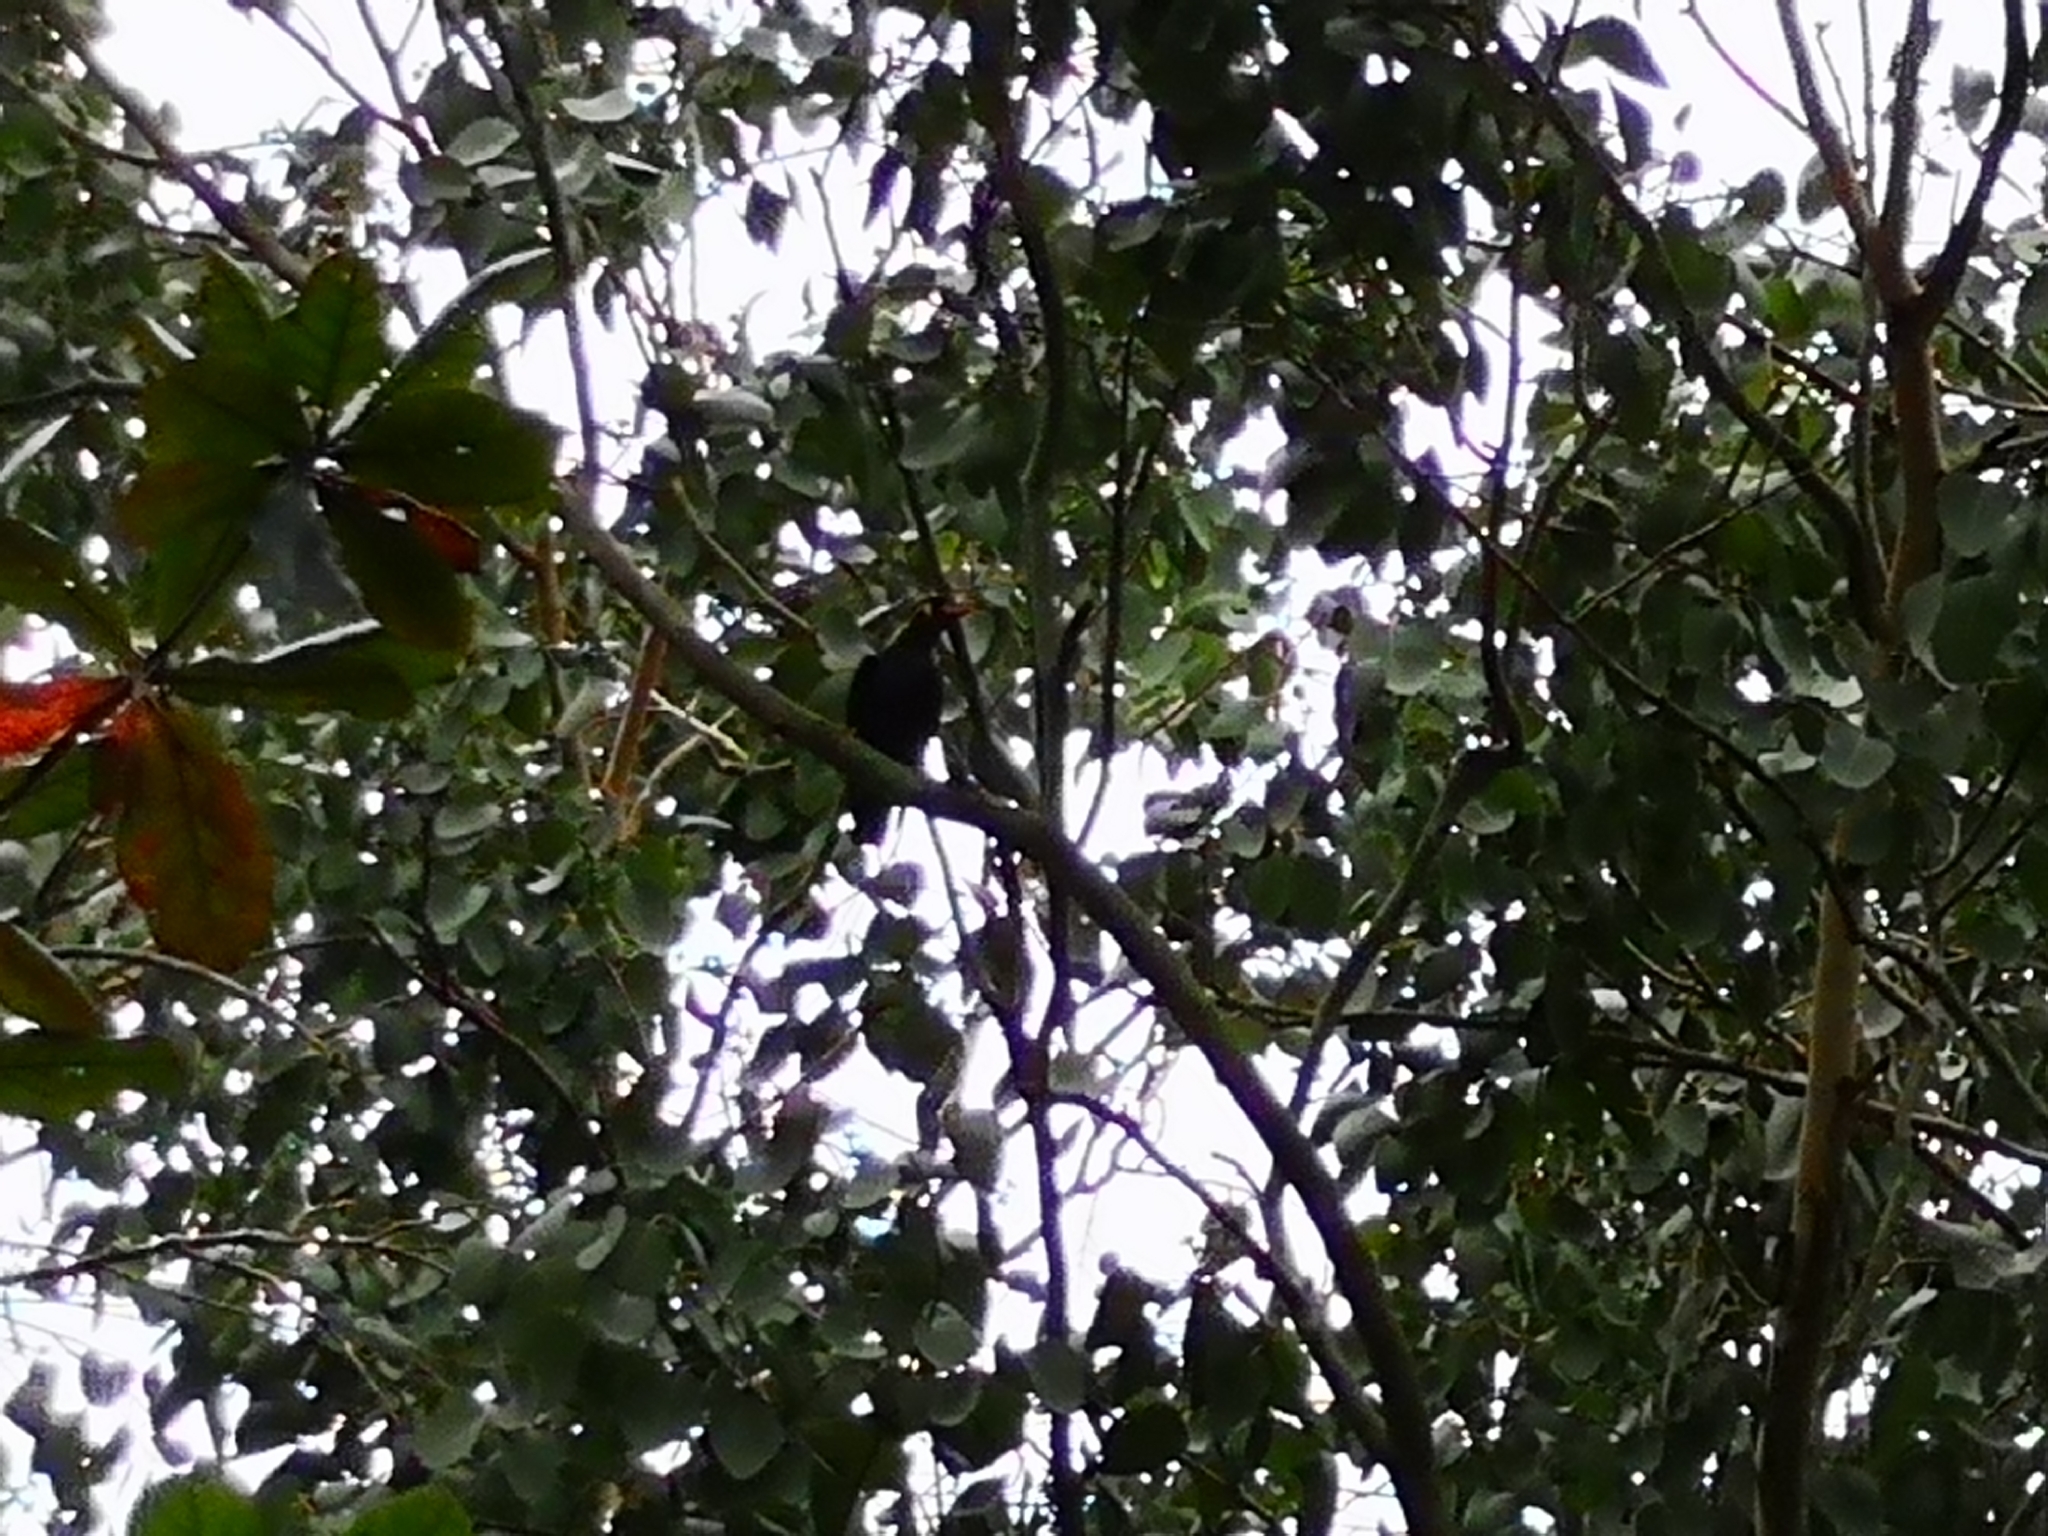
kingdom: Animalia
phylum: Chordata
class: Aves
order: Passeriformes
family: Sturnidae
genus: Gracula
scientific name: Gracula religiosa
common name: Common hill myna
